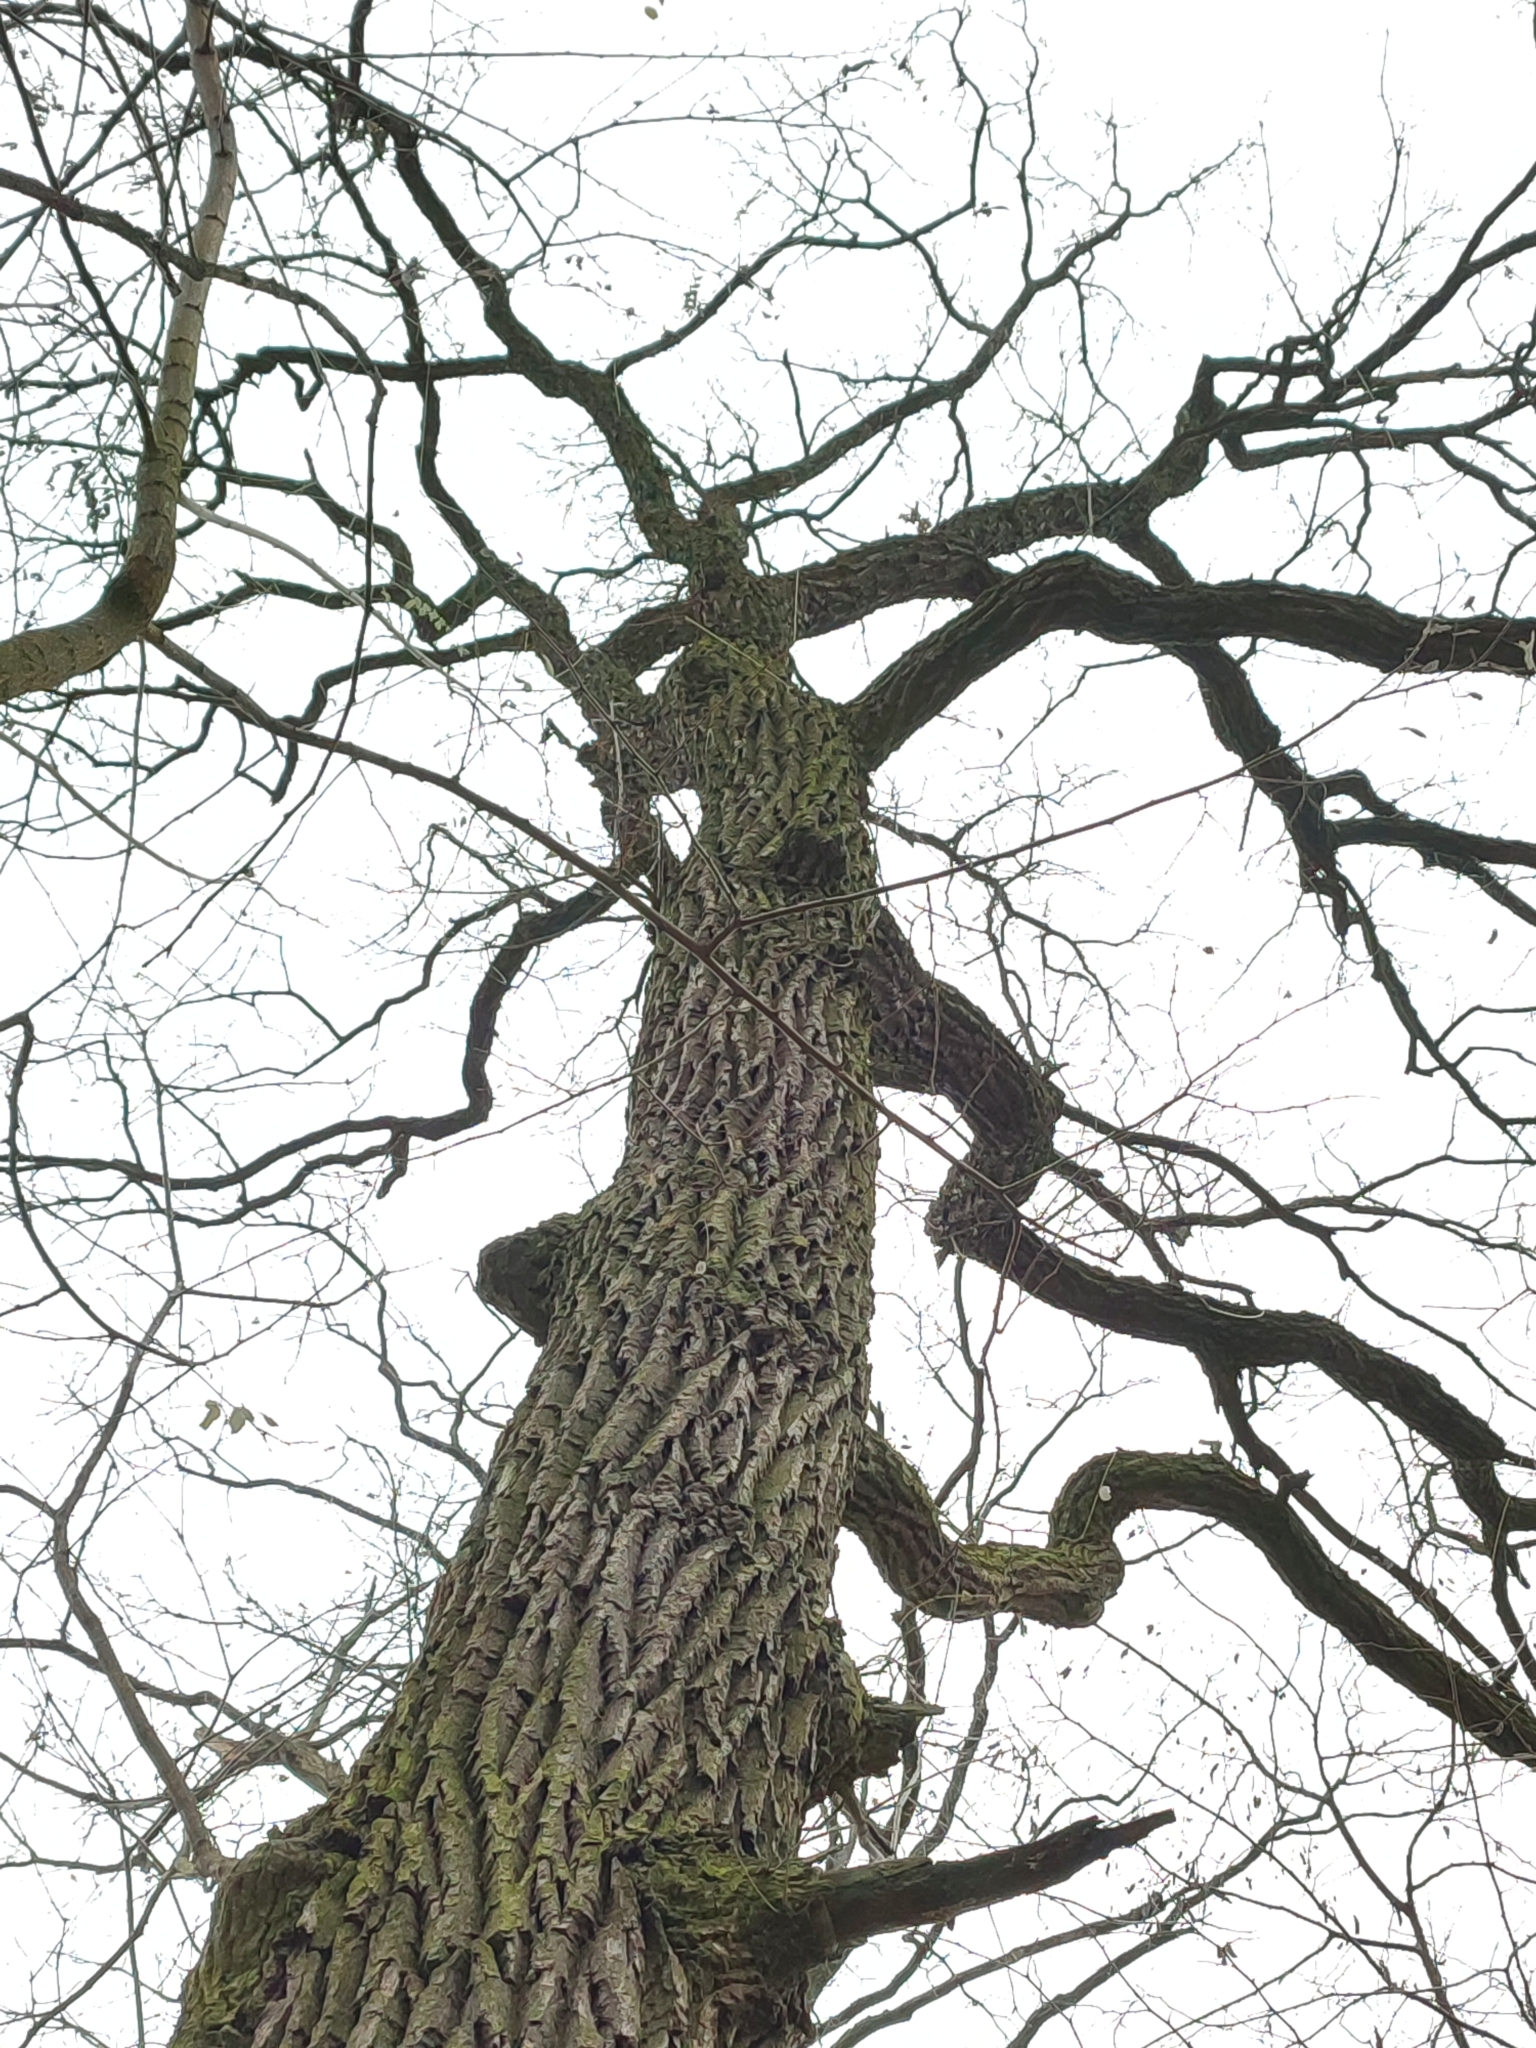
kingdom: Plantae
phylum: Tracheophyta
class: Magnoliopsida
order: Fagales
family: Fagaceae
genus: Quercus
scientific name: Quercus robur
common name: Pedunculate oak
